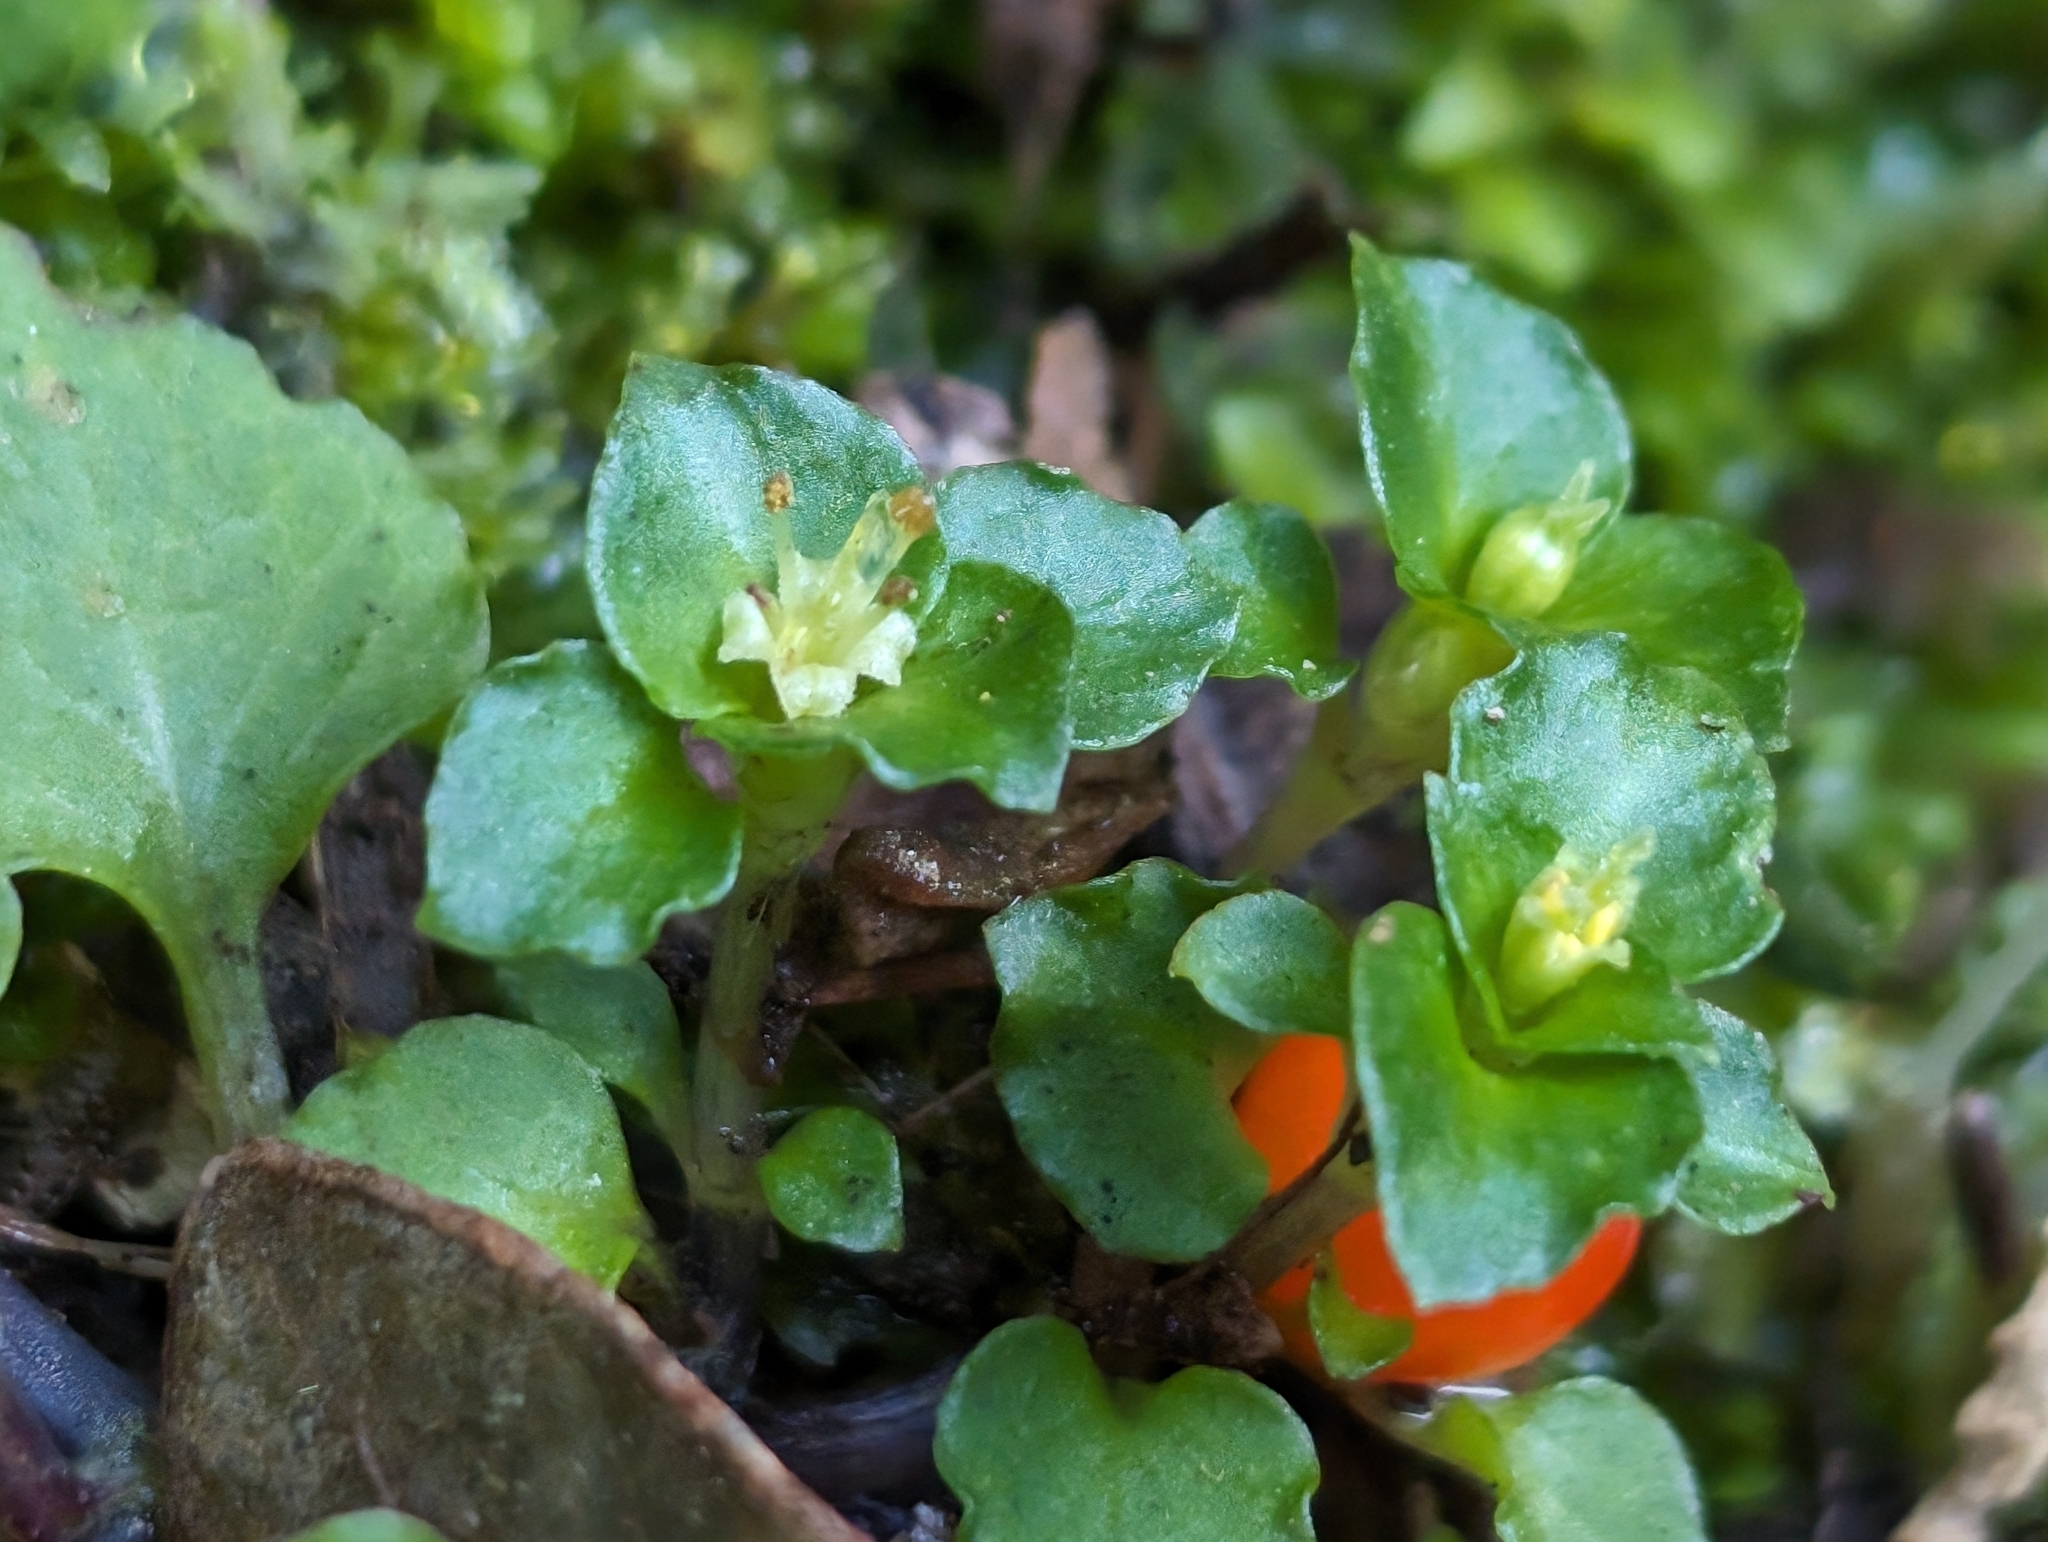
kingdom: Plantae
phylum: Tracheophyta
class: Magnoliopsida
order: Gentianales
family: Rubiaceae
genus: Nertera
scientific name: Nertera granadensis
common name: Beadplant
